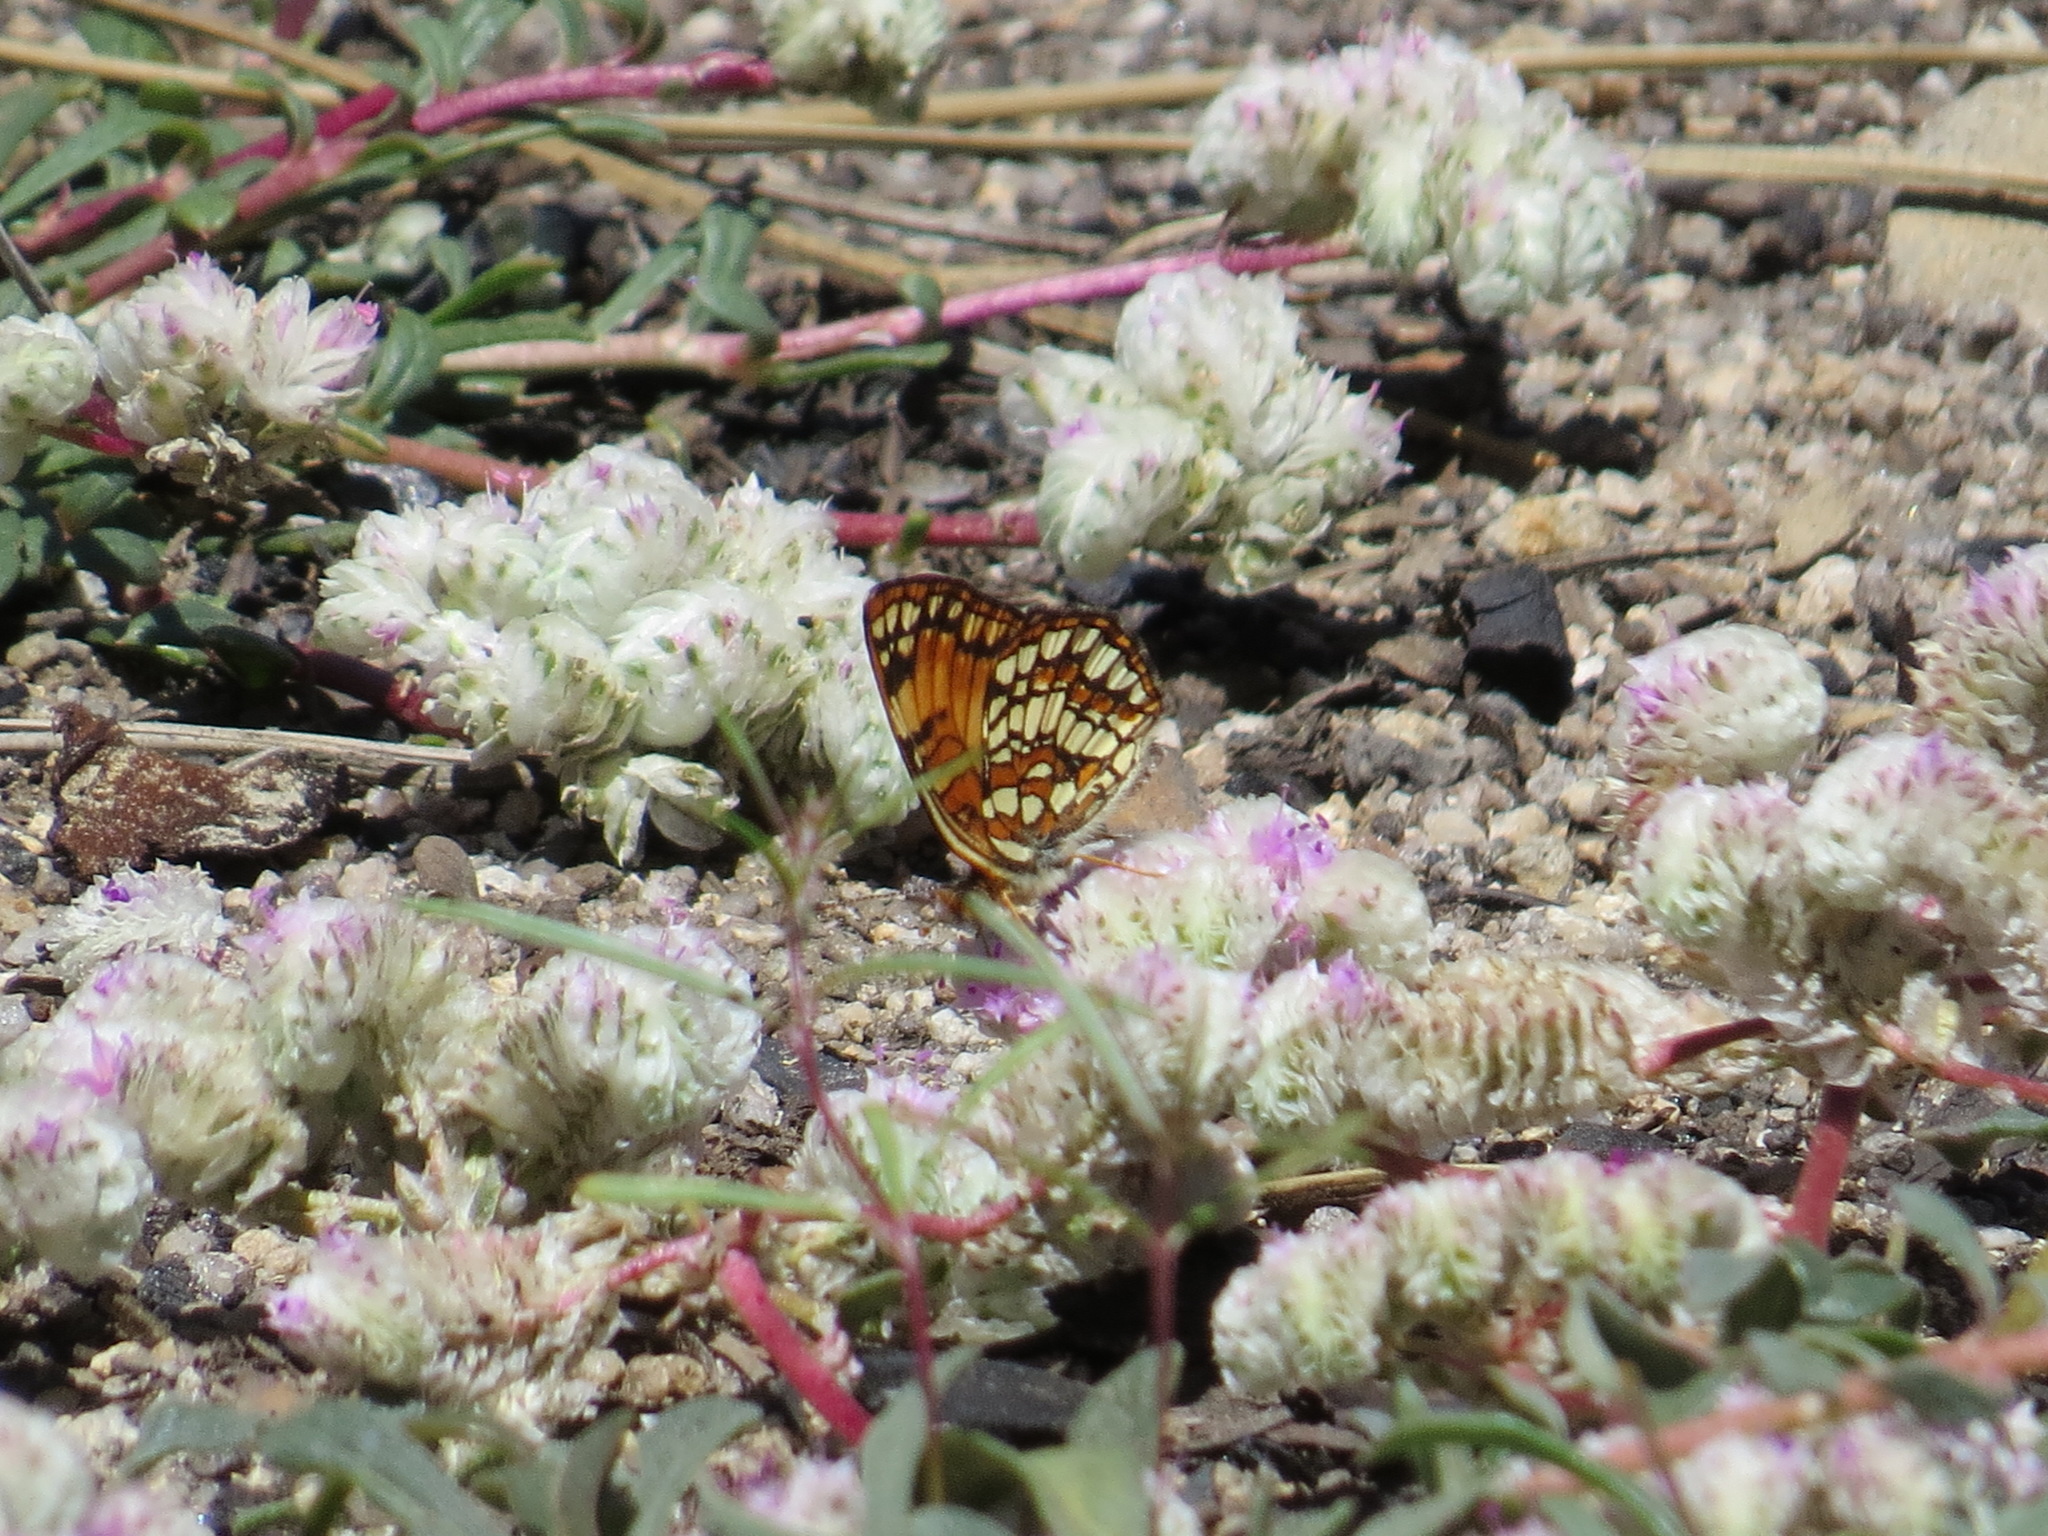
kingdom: Animalia
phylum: Arthropoda
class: Insecta
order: Lepidoptera
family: Nymphalidae
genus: Chlosyne
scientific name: Chlosyne hoffmanni
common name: Hoffmann's checkerspot
